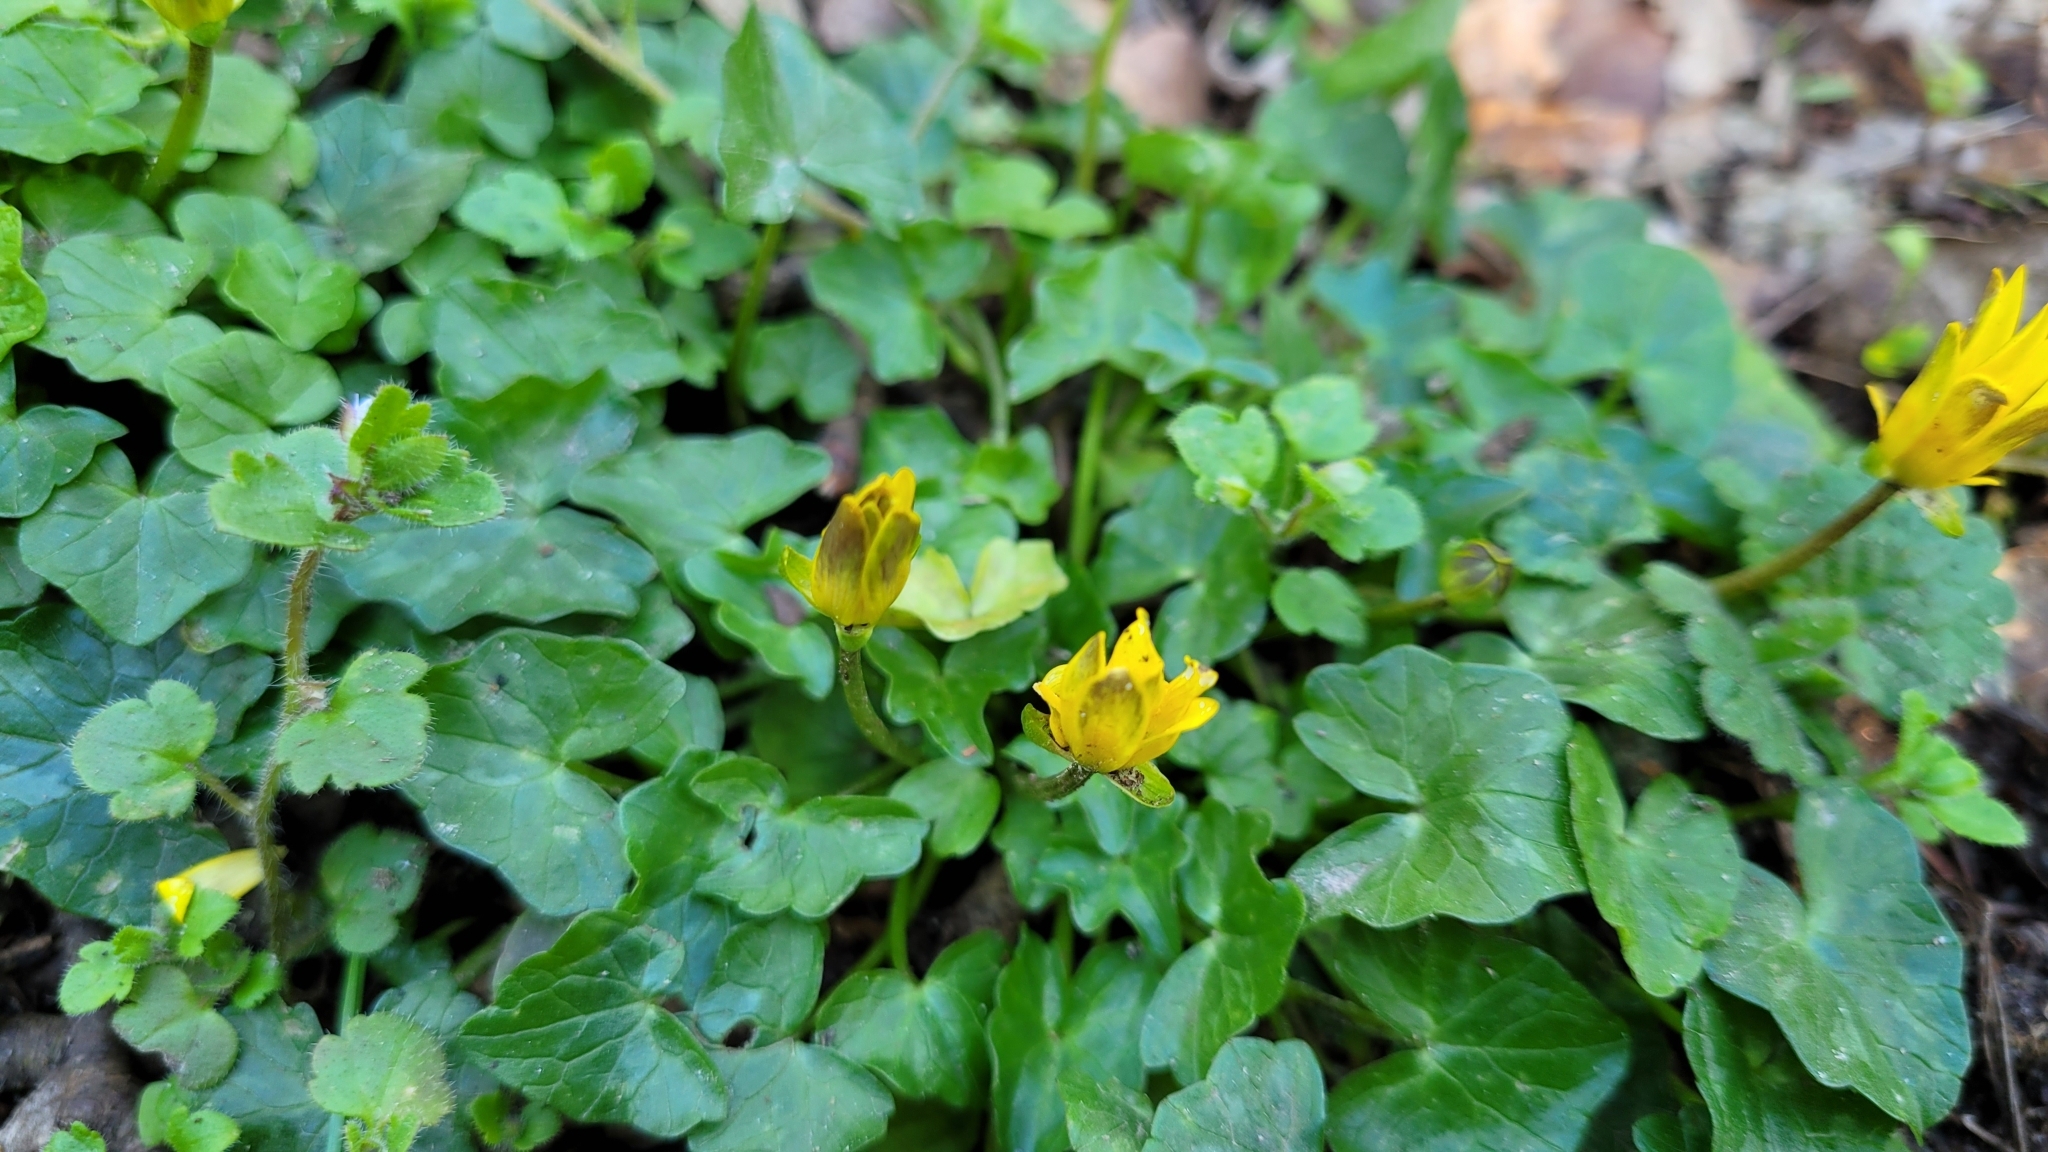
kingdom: Plantae
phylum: Tracheophyta
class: Magnoliopsida
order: Ranunculales
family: Ranunculaceae
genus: Ficaria
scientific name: Ficaria verna
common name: Lesser celandine
